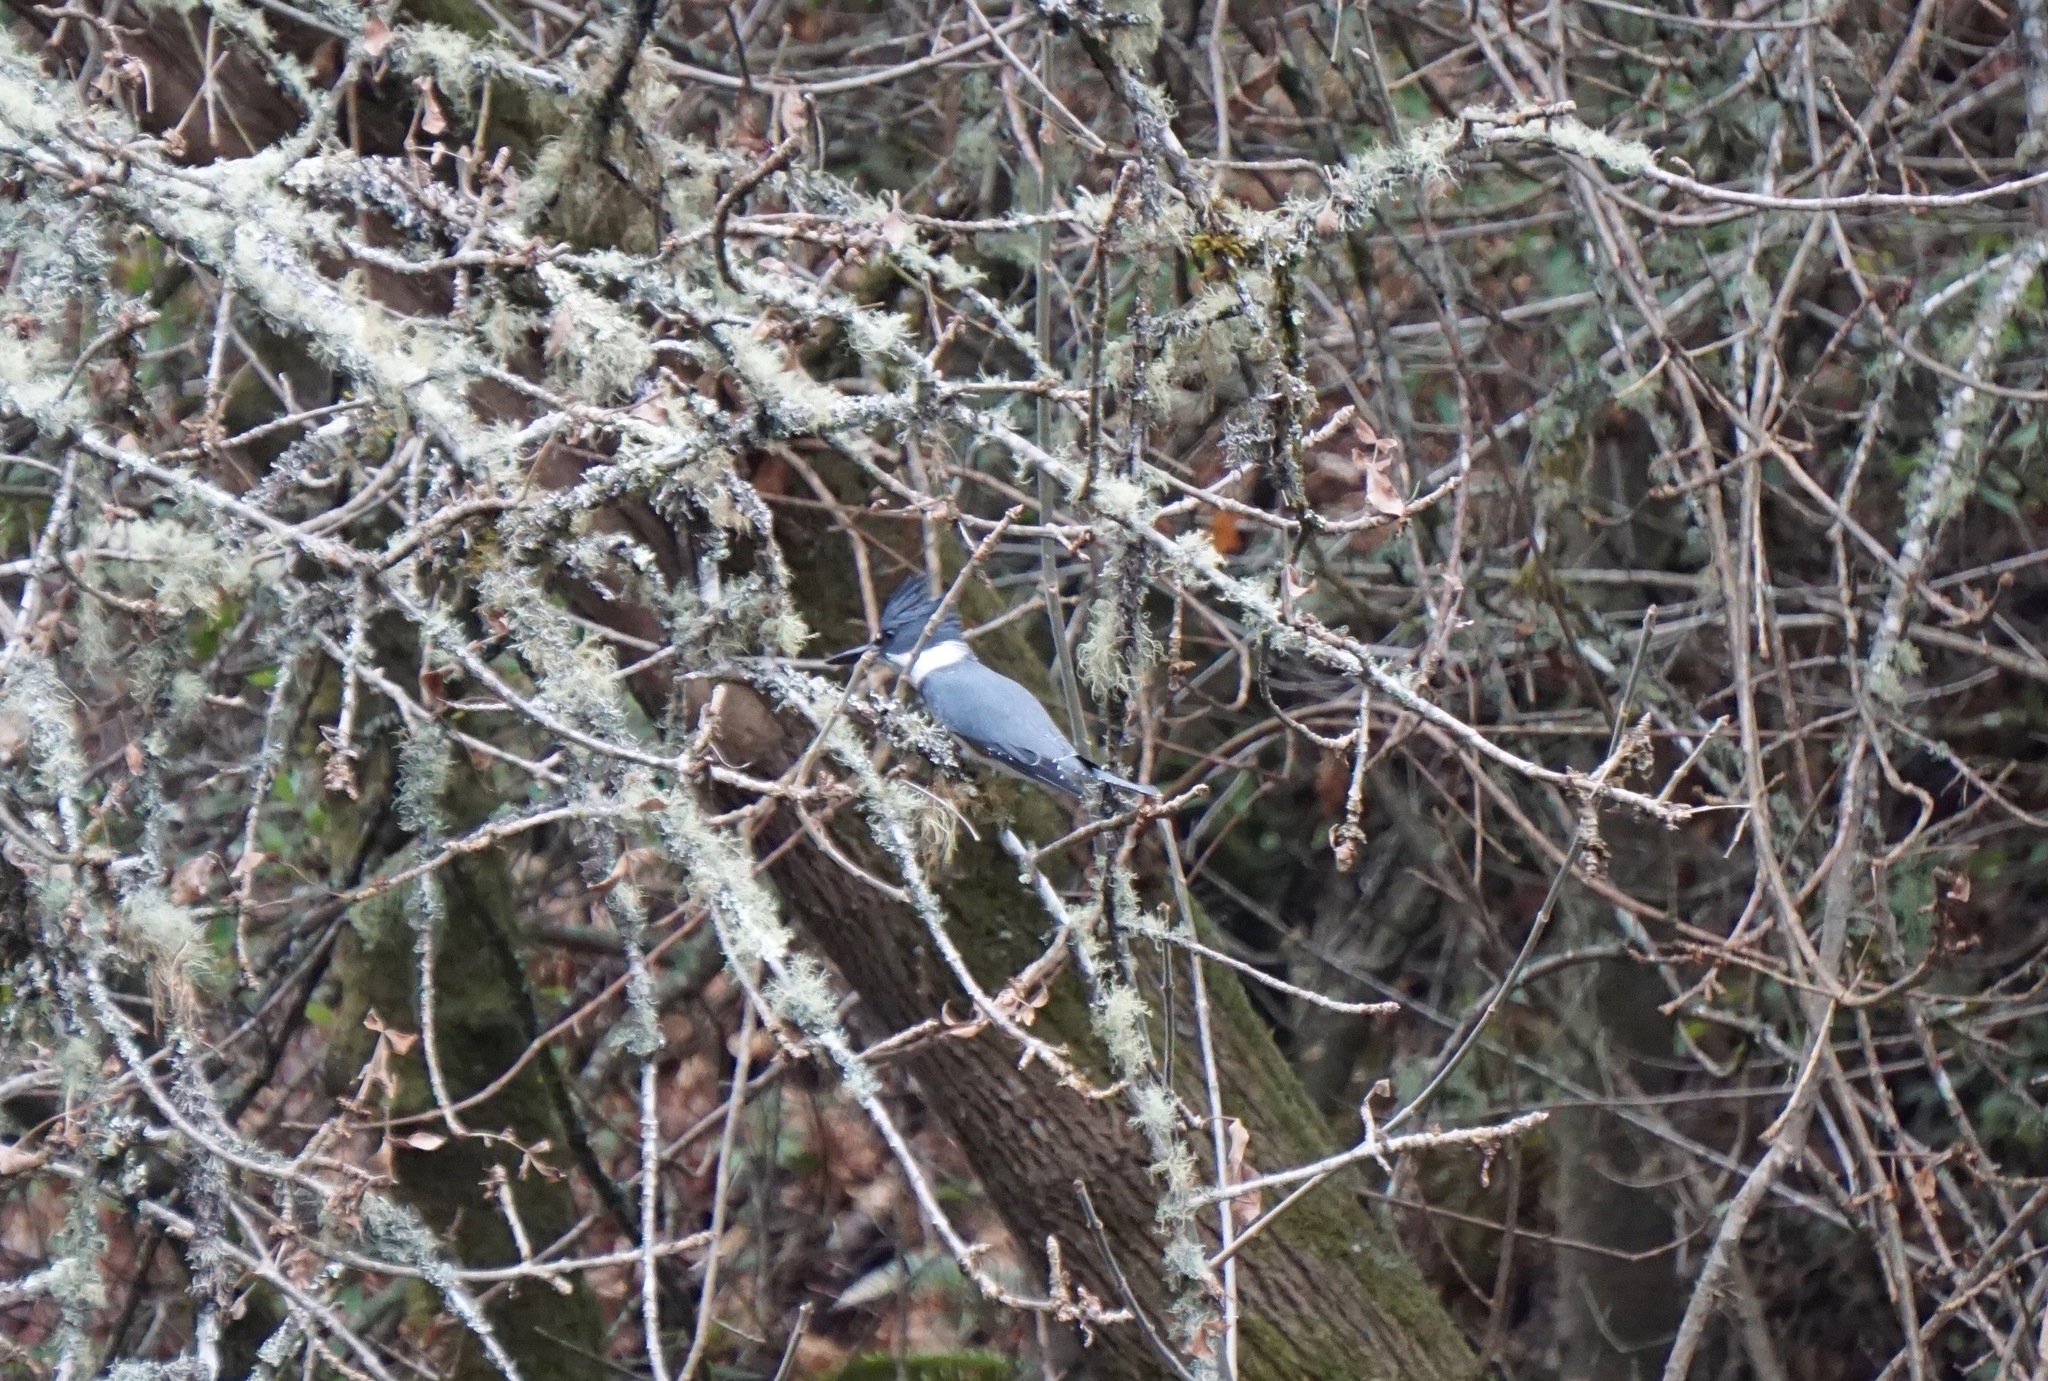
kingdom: Animalia
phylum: Chordata
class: Aves
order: Coraciiformes
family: Alcedinidae
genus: Megaceryle
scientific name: Megaceryle alcyon
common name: Belted kingfisher
